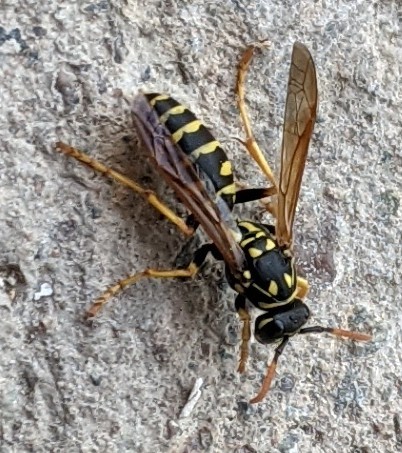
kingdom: Animalia
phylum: Arthropoda
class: Insecta
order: Hymenoptera
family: Eumenidae
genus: Polistes
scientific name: Polistes dominula
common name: Paper wasp
